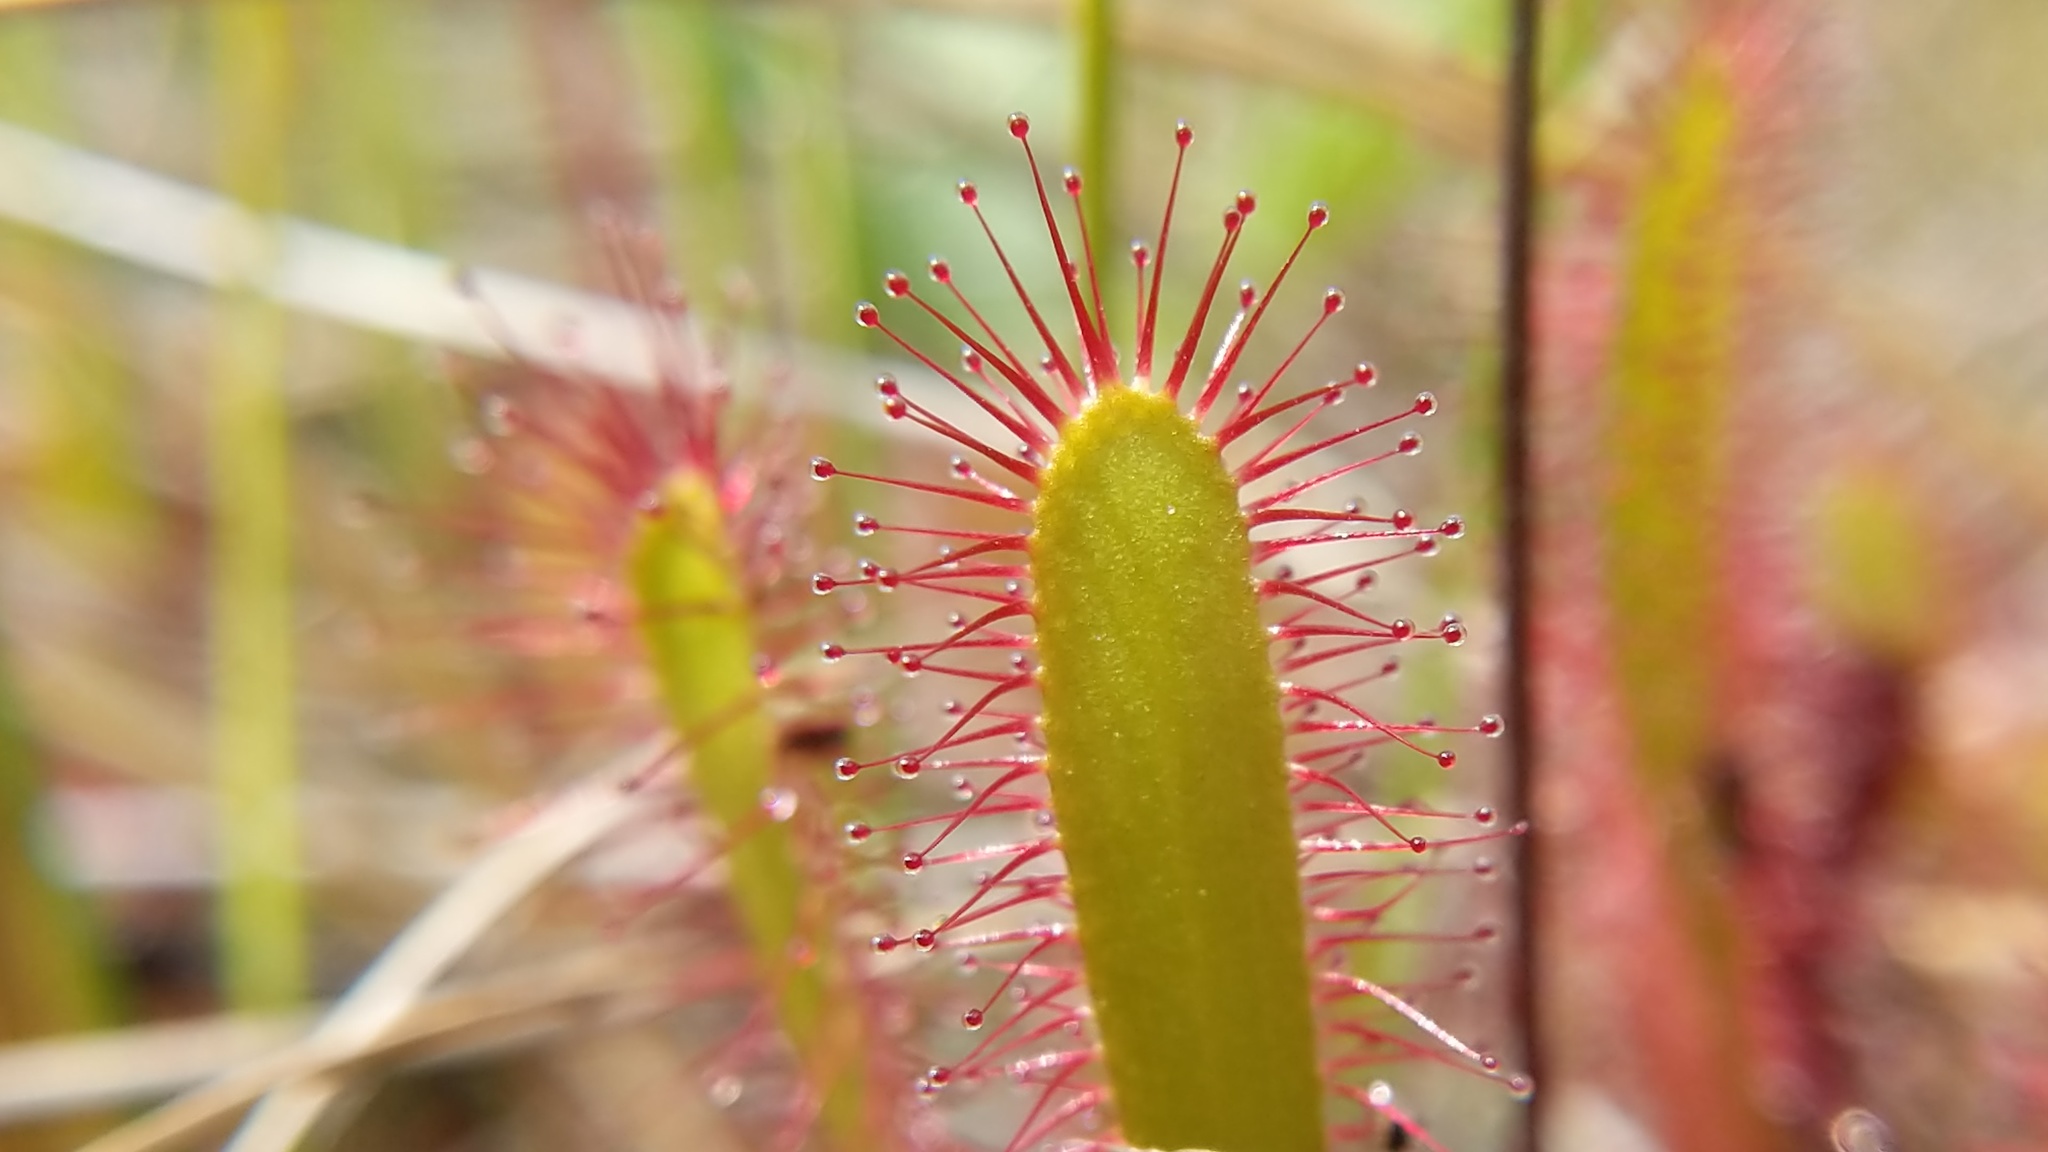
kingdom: Plantae
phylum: Tracheophyta
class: Magnoliopsida
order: Caryophyllales
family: Droseraceae
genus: Drosera
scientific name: Drosera anglica
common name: Great sundew
